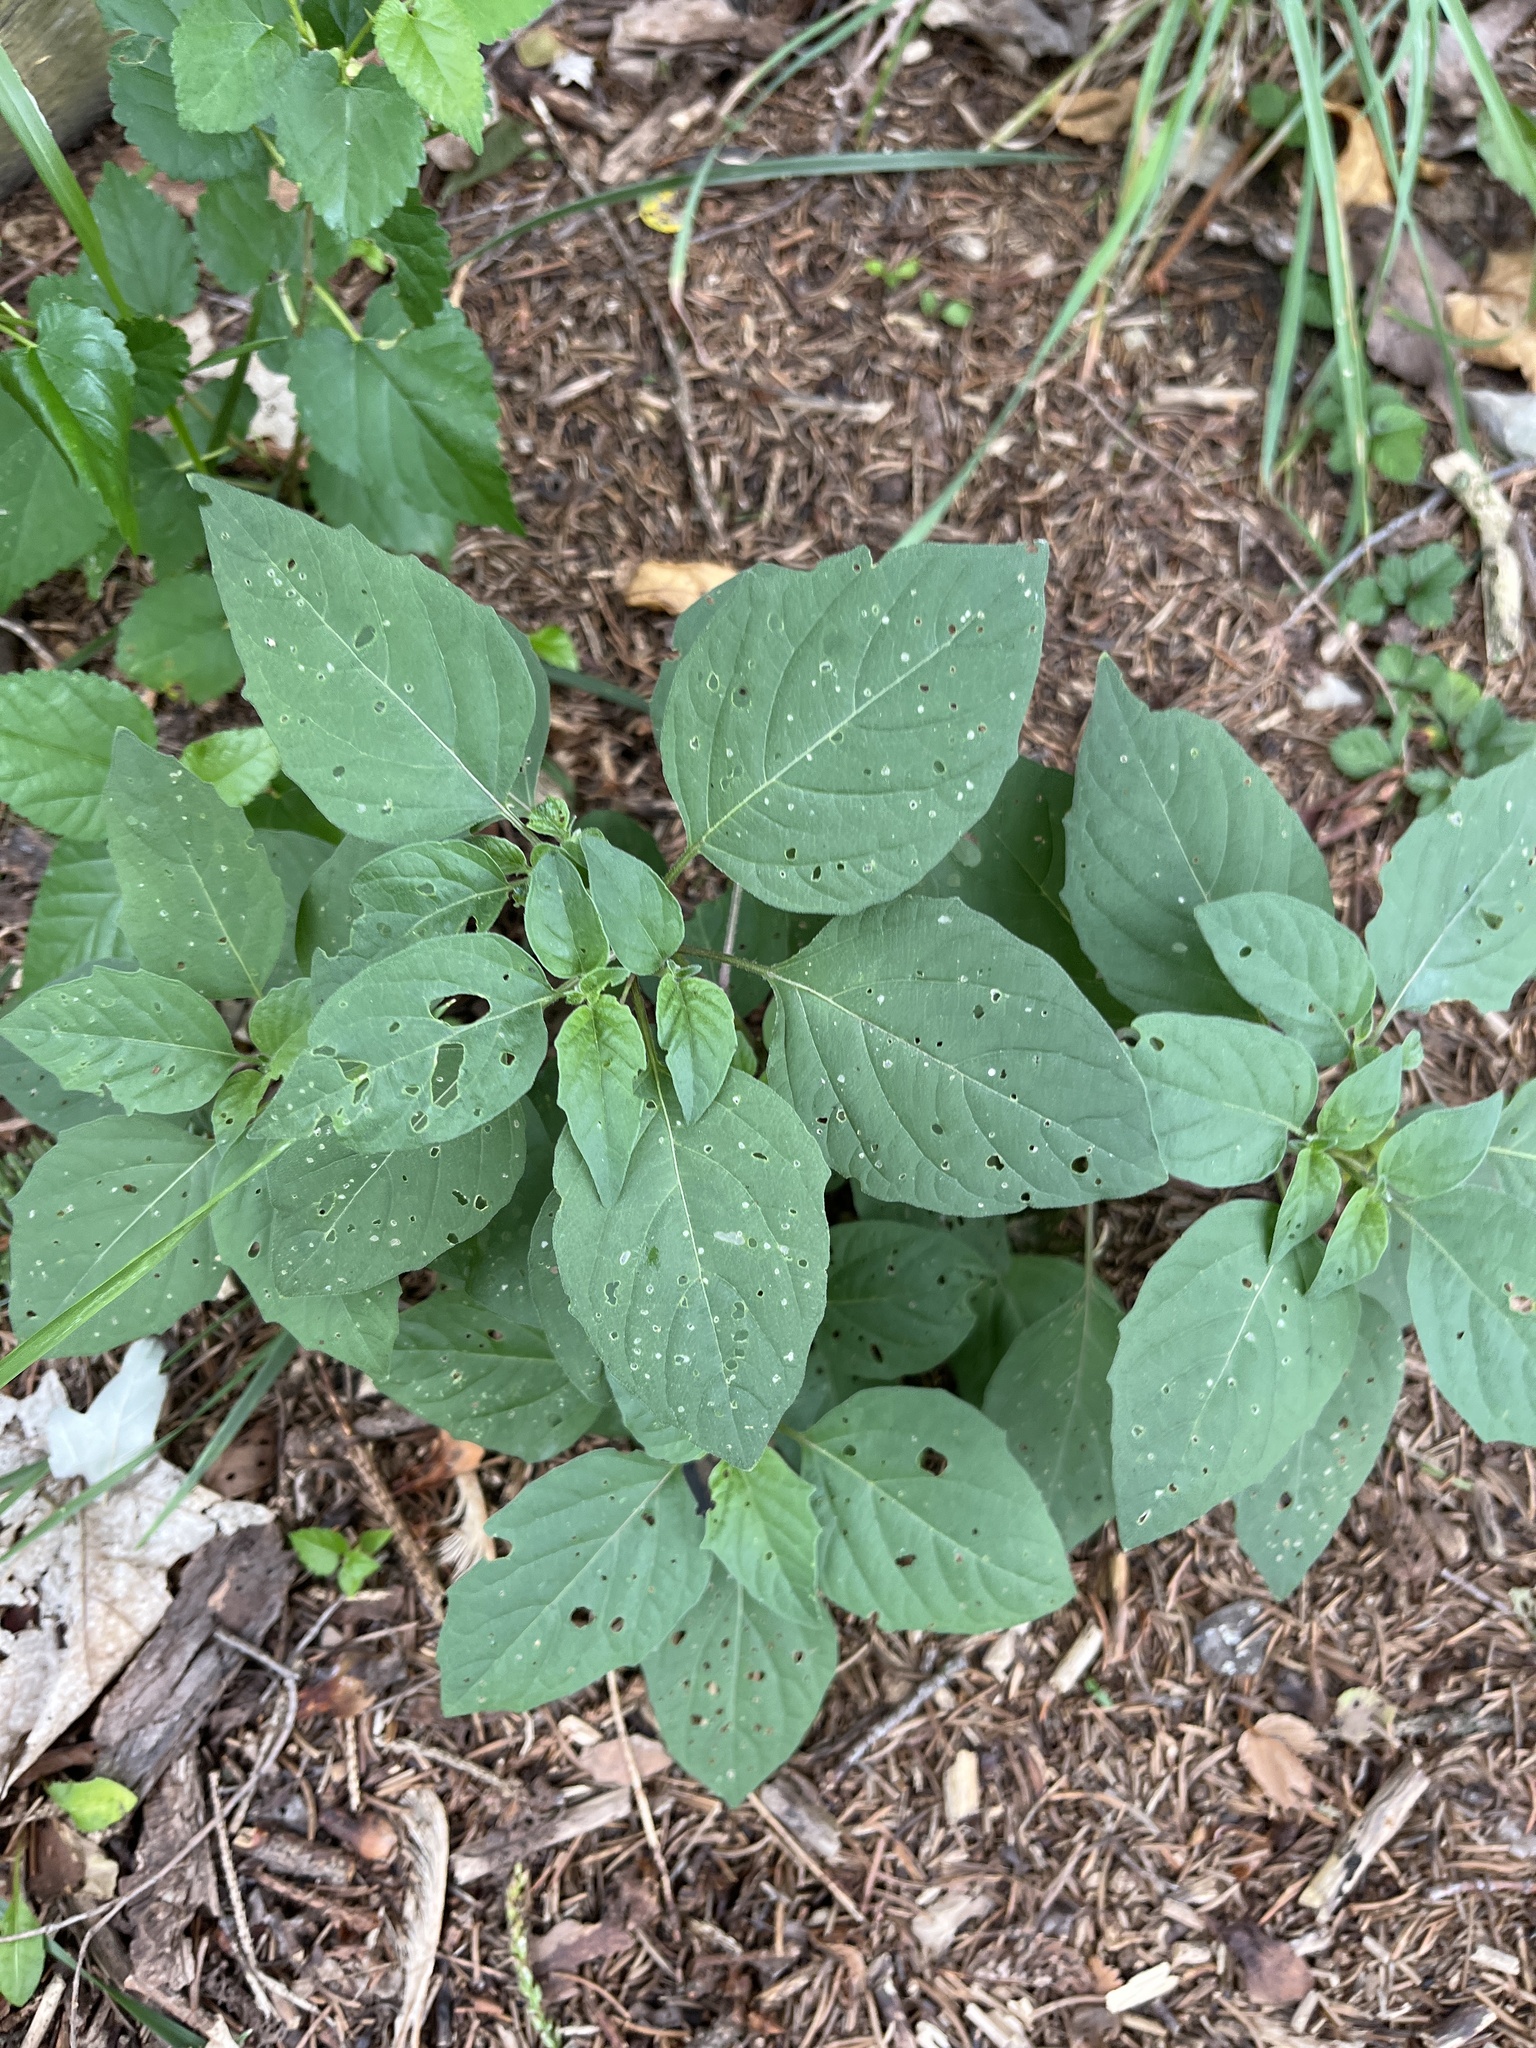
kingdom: Plantae
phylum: Tracheophyta
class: Magnoliopsida
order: Solanales
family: Solanaceae
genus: Physalis
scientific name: Physalis longifolia
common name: Common ground-cherry
